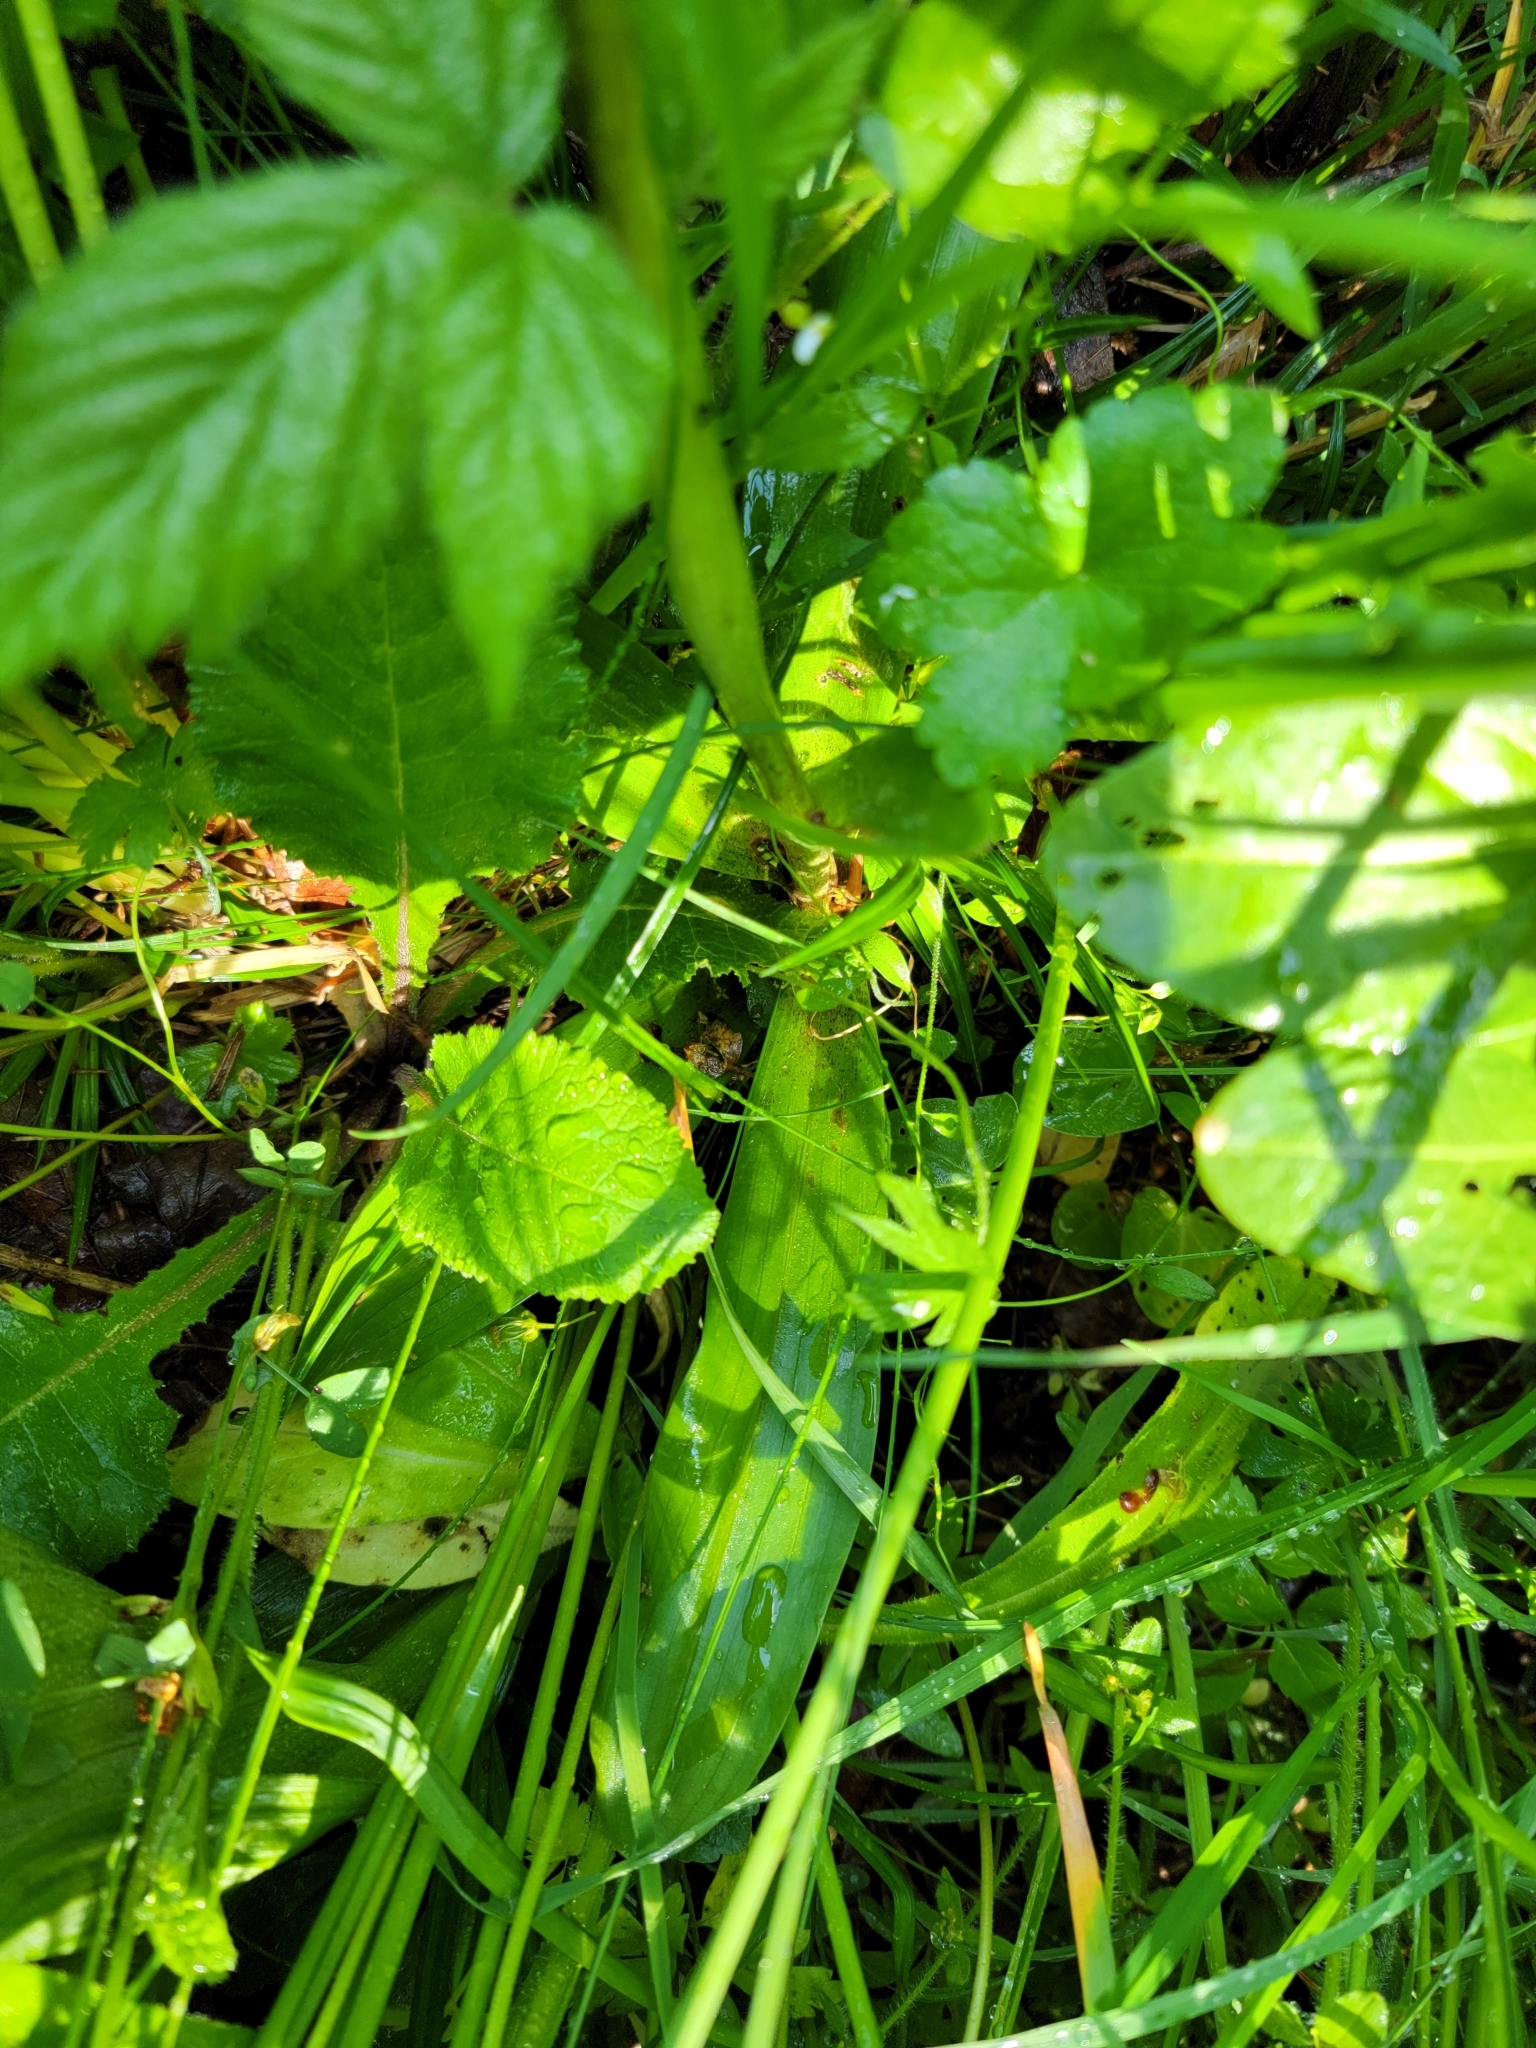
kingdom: Plantae
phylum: Tracheophyta
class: Liliopsida
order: Asparagales
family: Orchidaceae
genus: Orchis
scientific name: Orchis mascula
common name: Early-purple orchid
